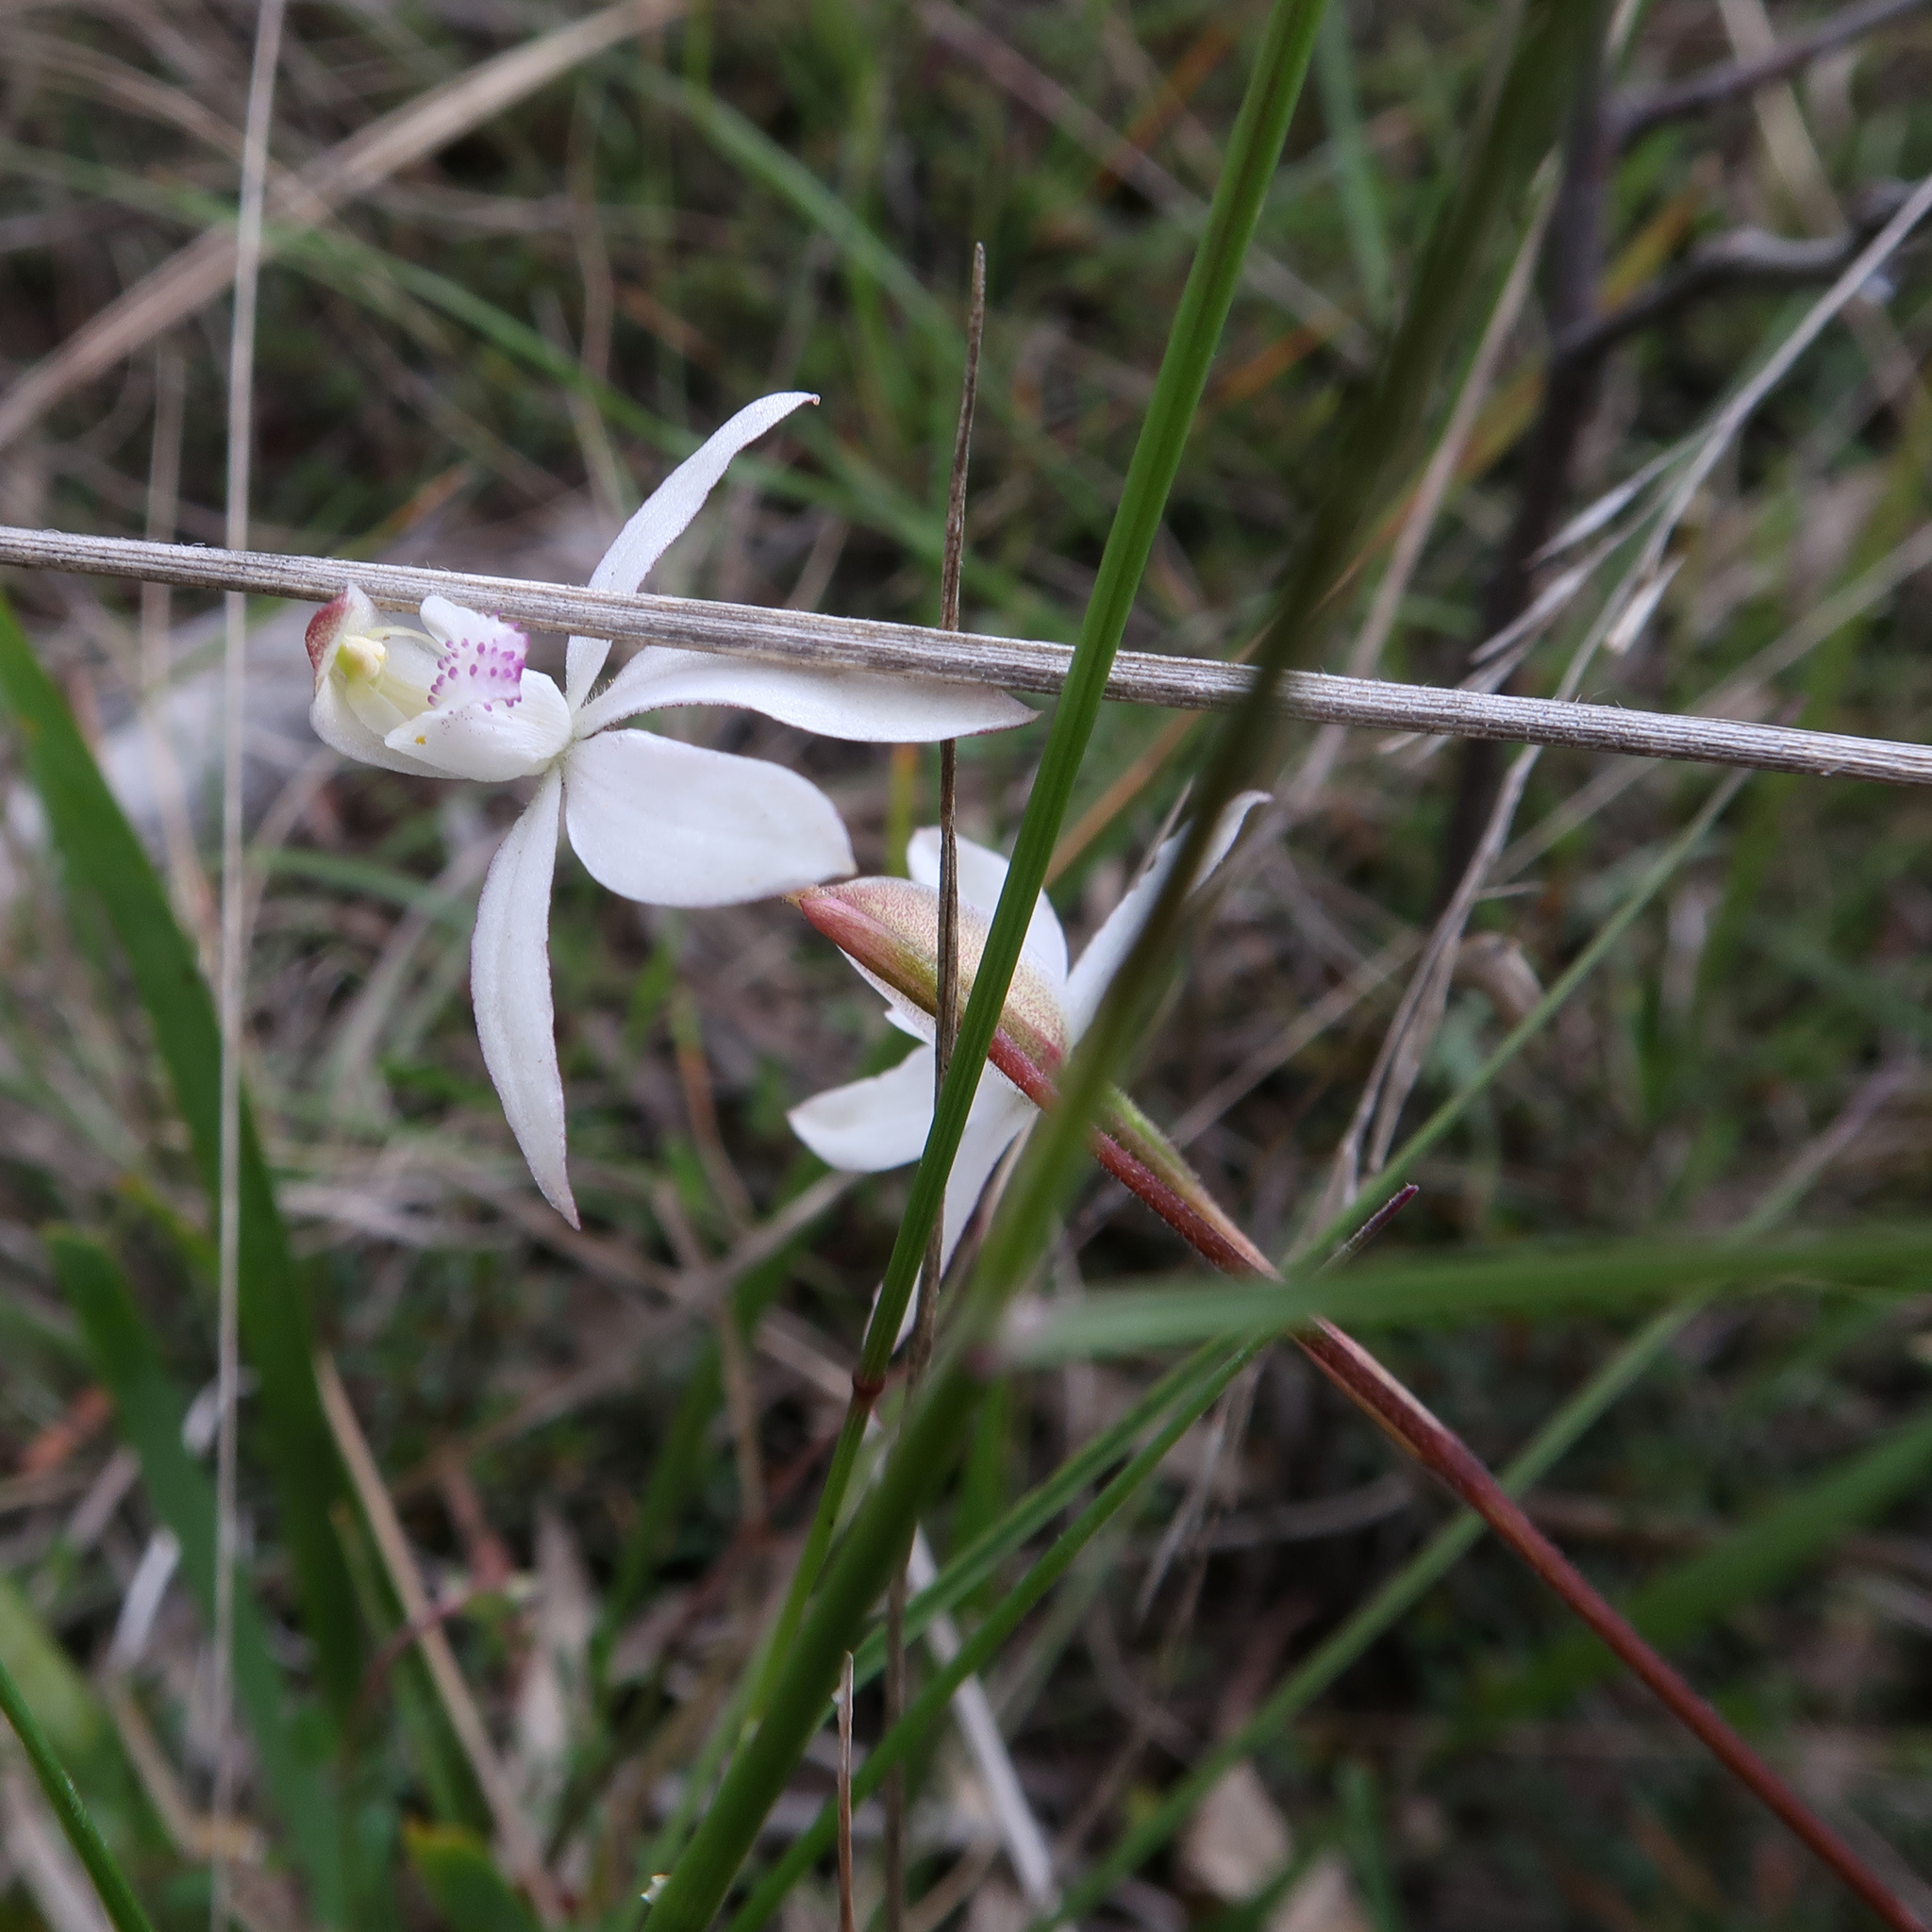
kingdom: Plantae
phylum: Tracheophyta
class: Liliopsida
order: Asparagales
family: Orchidaceae
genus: Caladenia
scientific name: Caladenia gracilis
